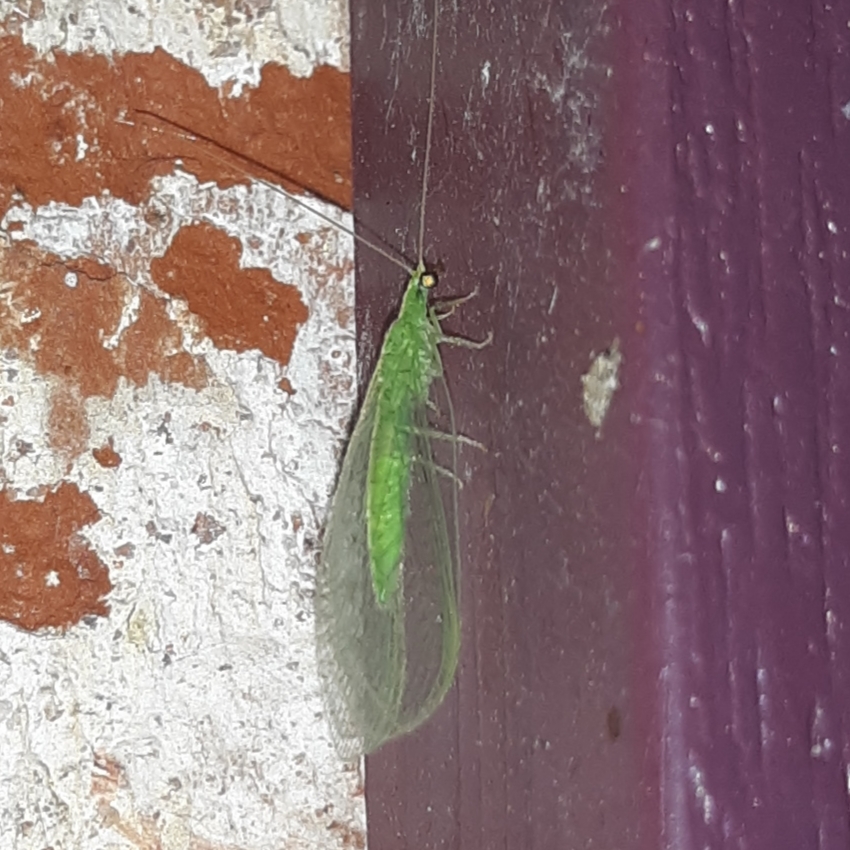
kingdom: Animalia
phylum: Arthropoda
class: Insecta
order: Neuroptera
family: Chrysopidae
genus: Chrysoperla
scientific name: Chrysoperla
